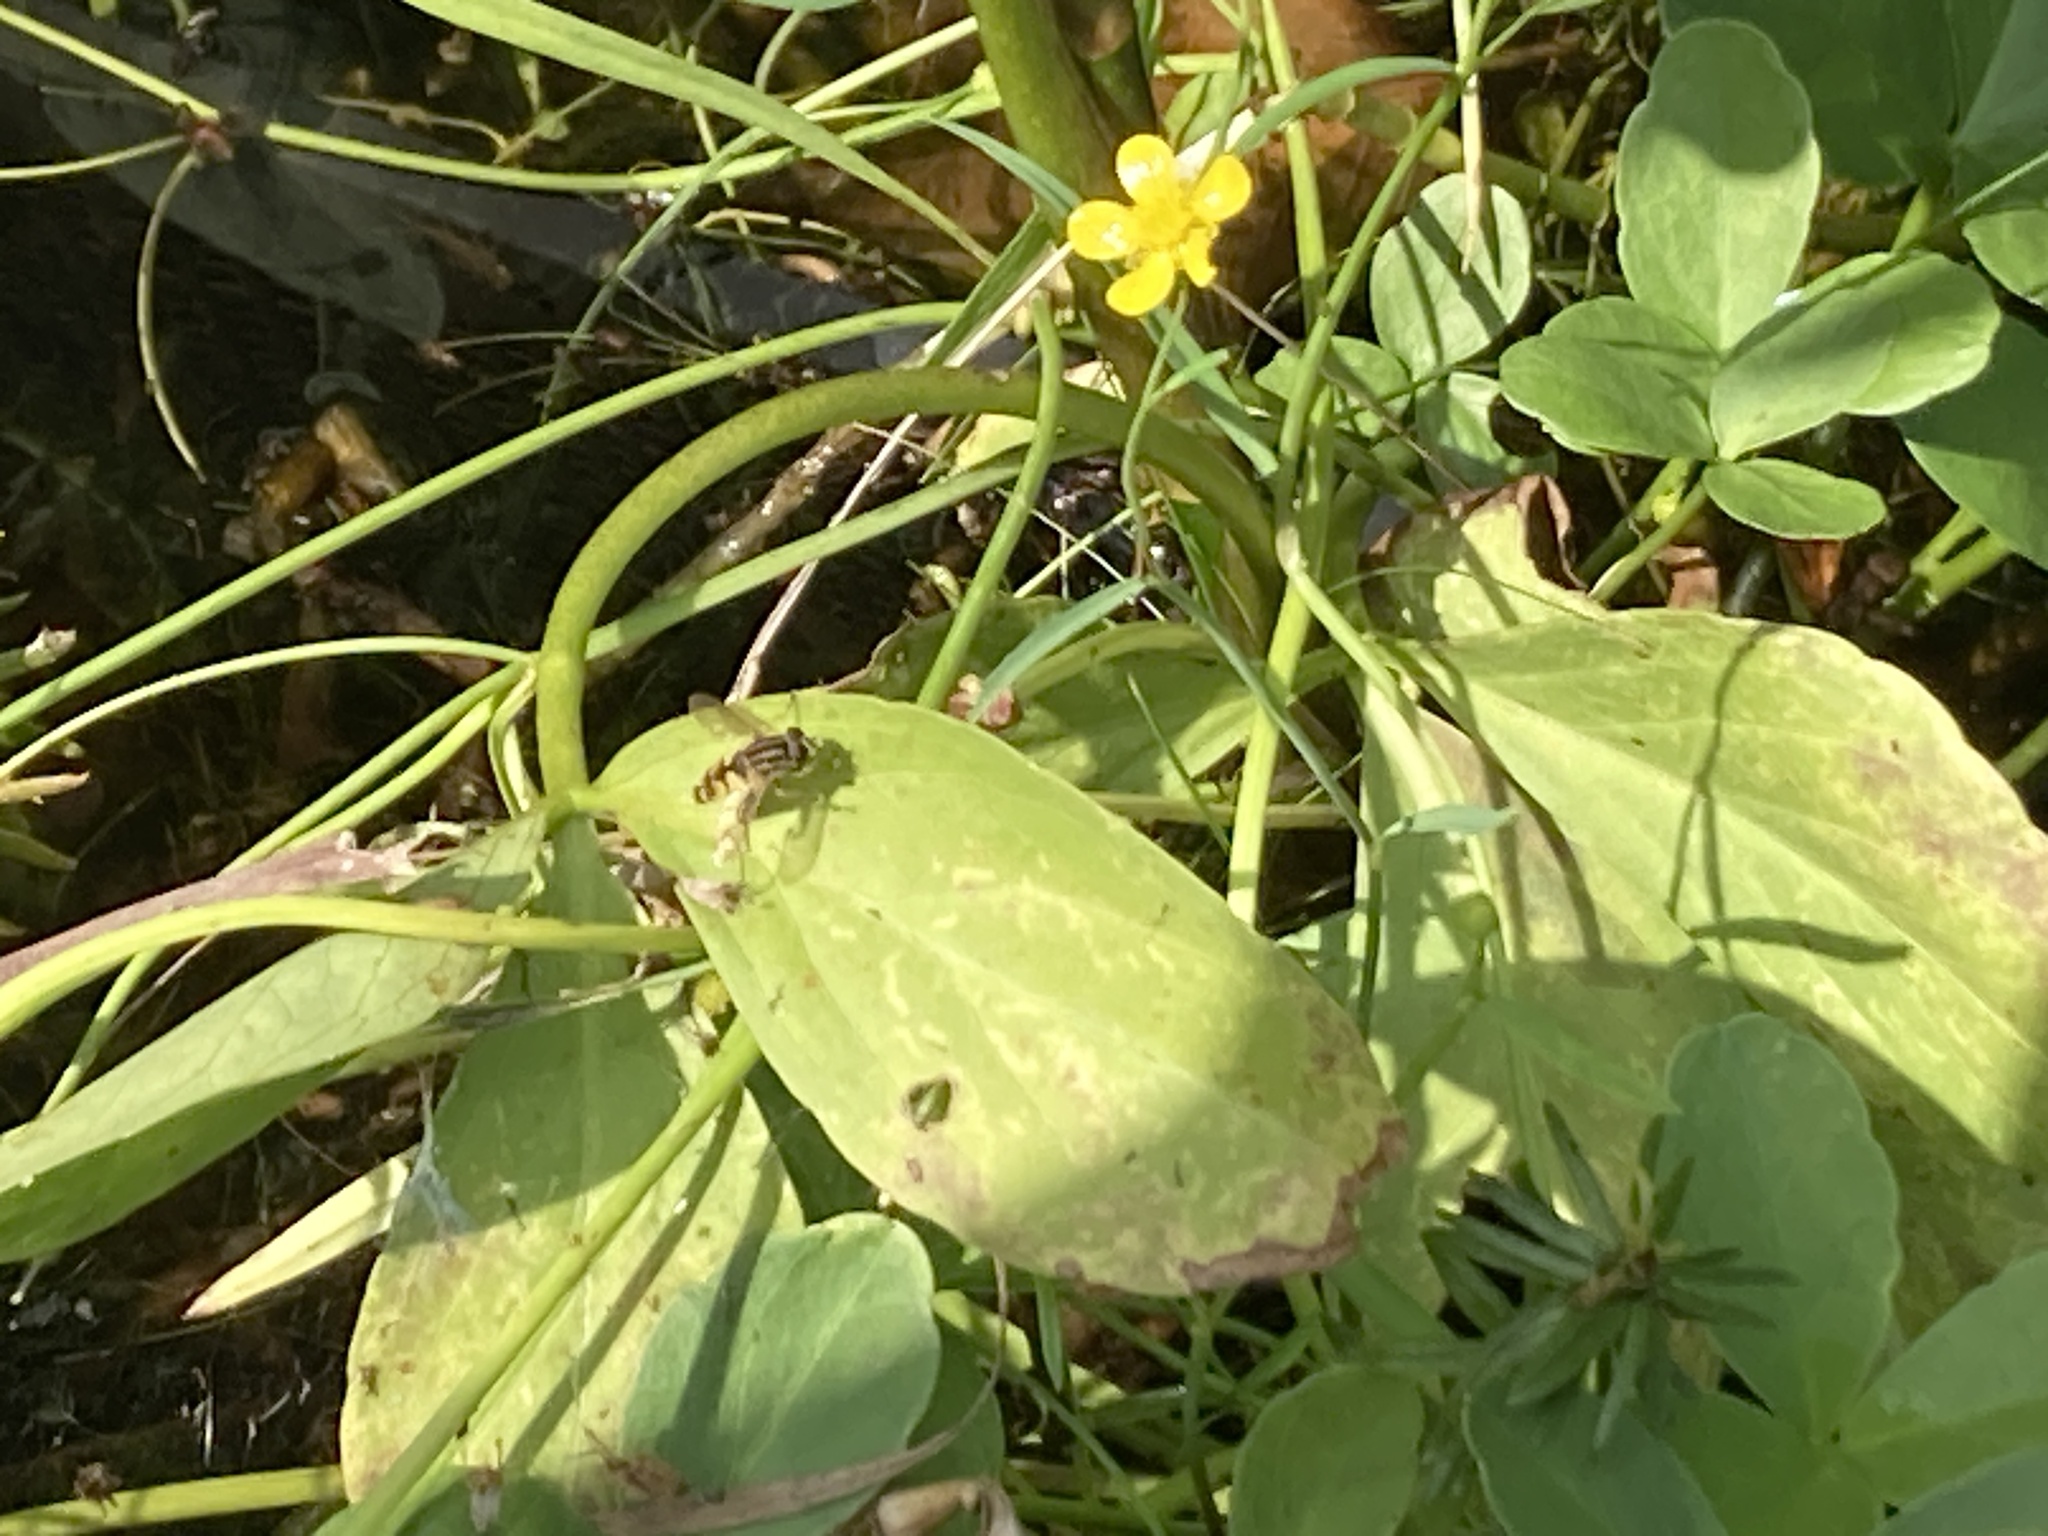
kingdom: Animalia
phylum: Arthropoda
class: Insecta
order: Diptera
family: Syrphidae
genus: Helophilus
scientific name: Helophilus
